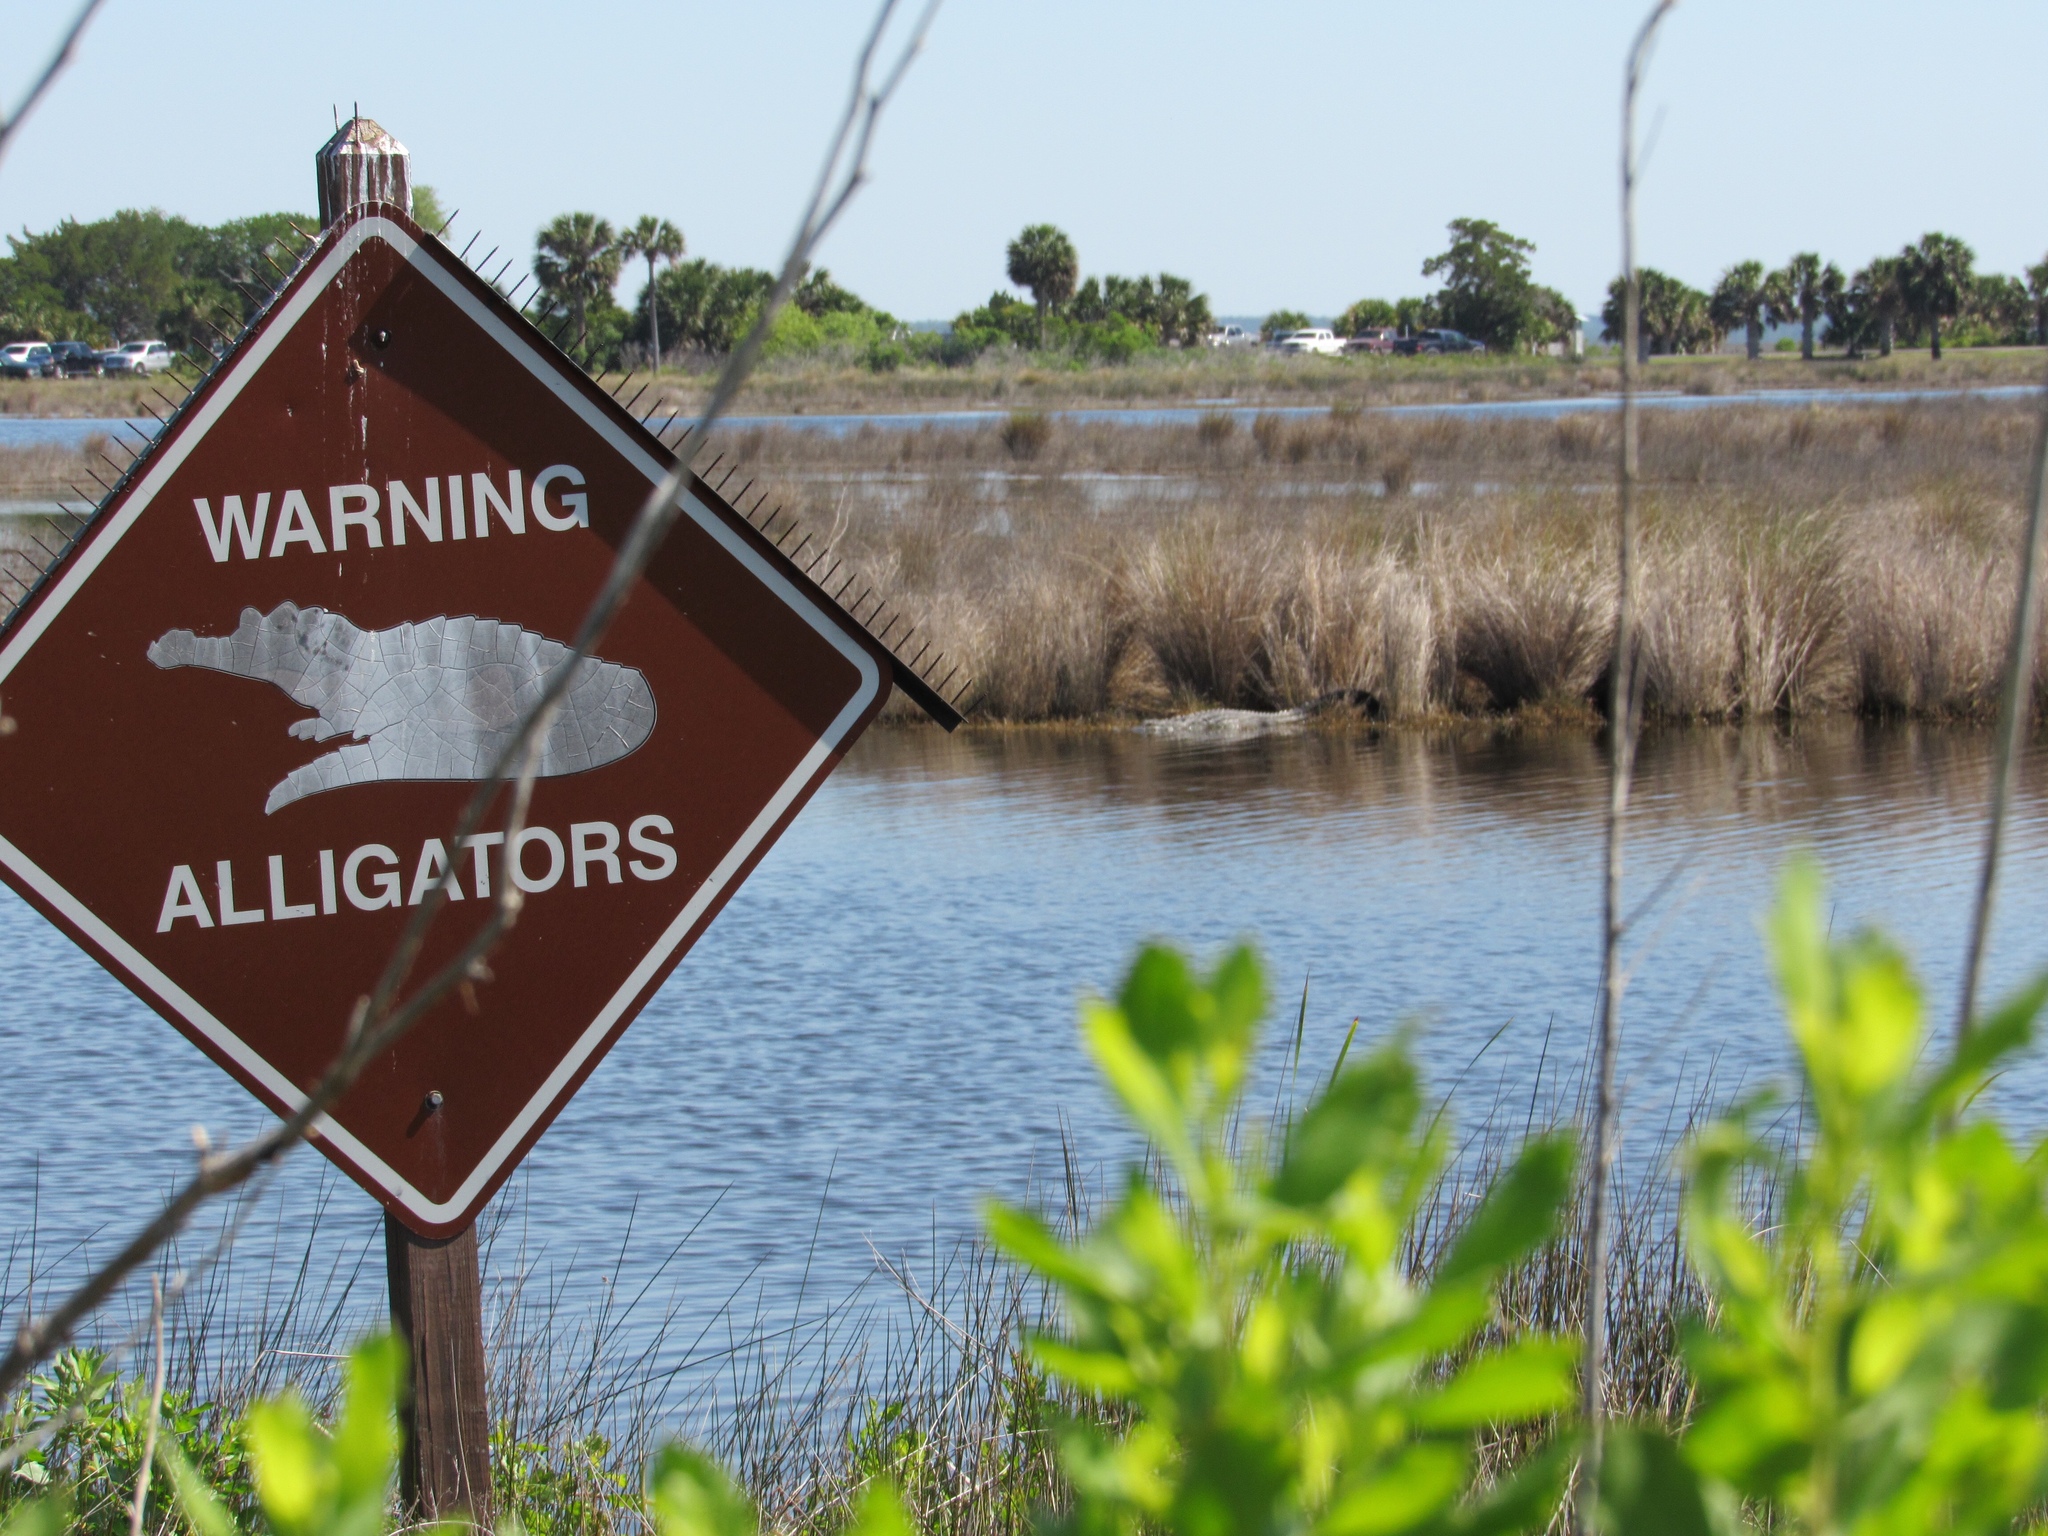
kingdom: Animalia
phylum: Chordata
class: Crocodylia
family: Alligatoridae
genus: Alligator
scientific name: Alligator mississippiensis
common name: American alligator
